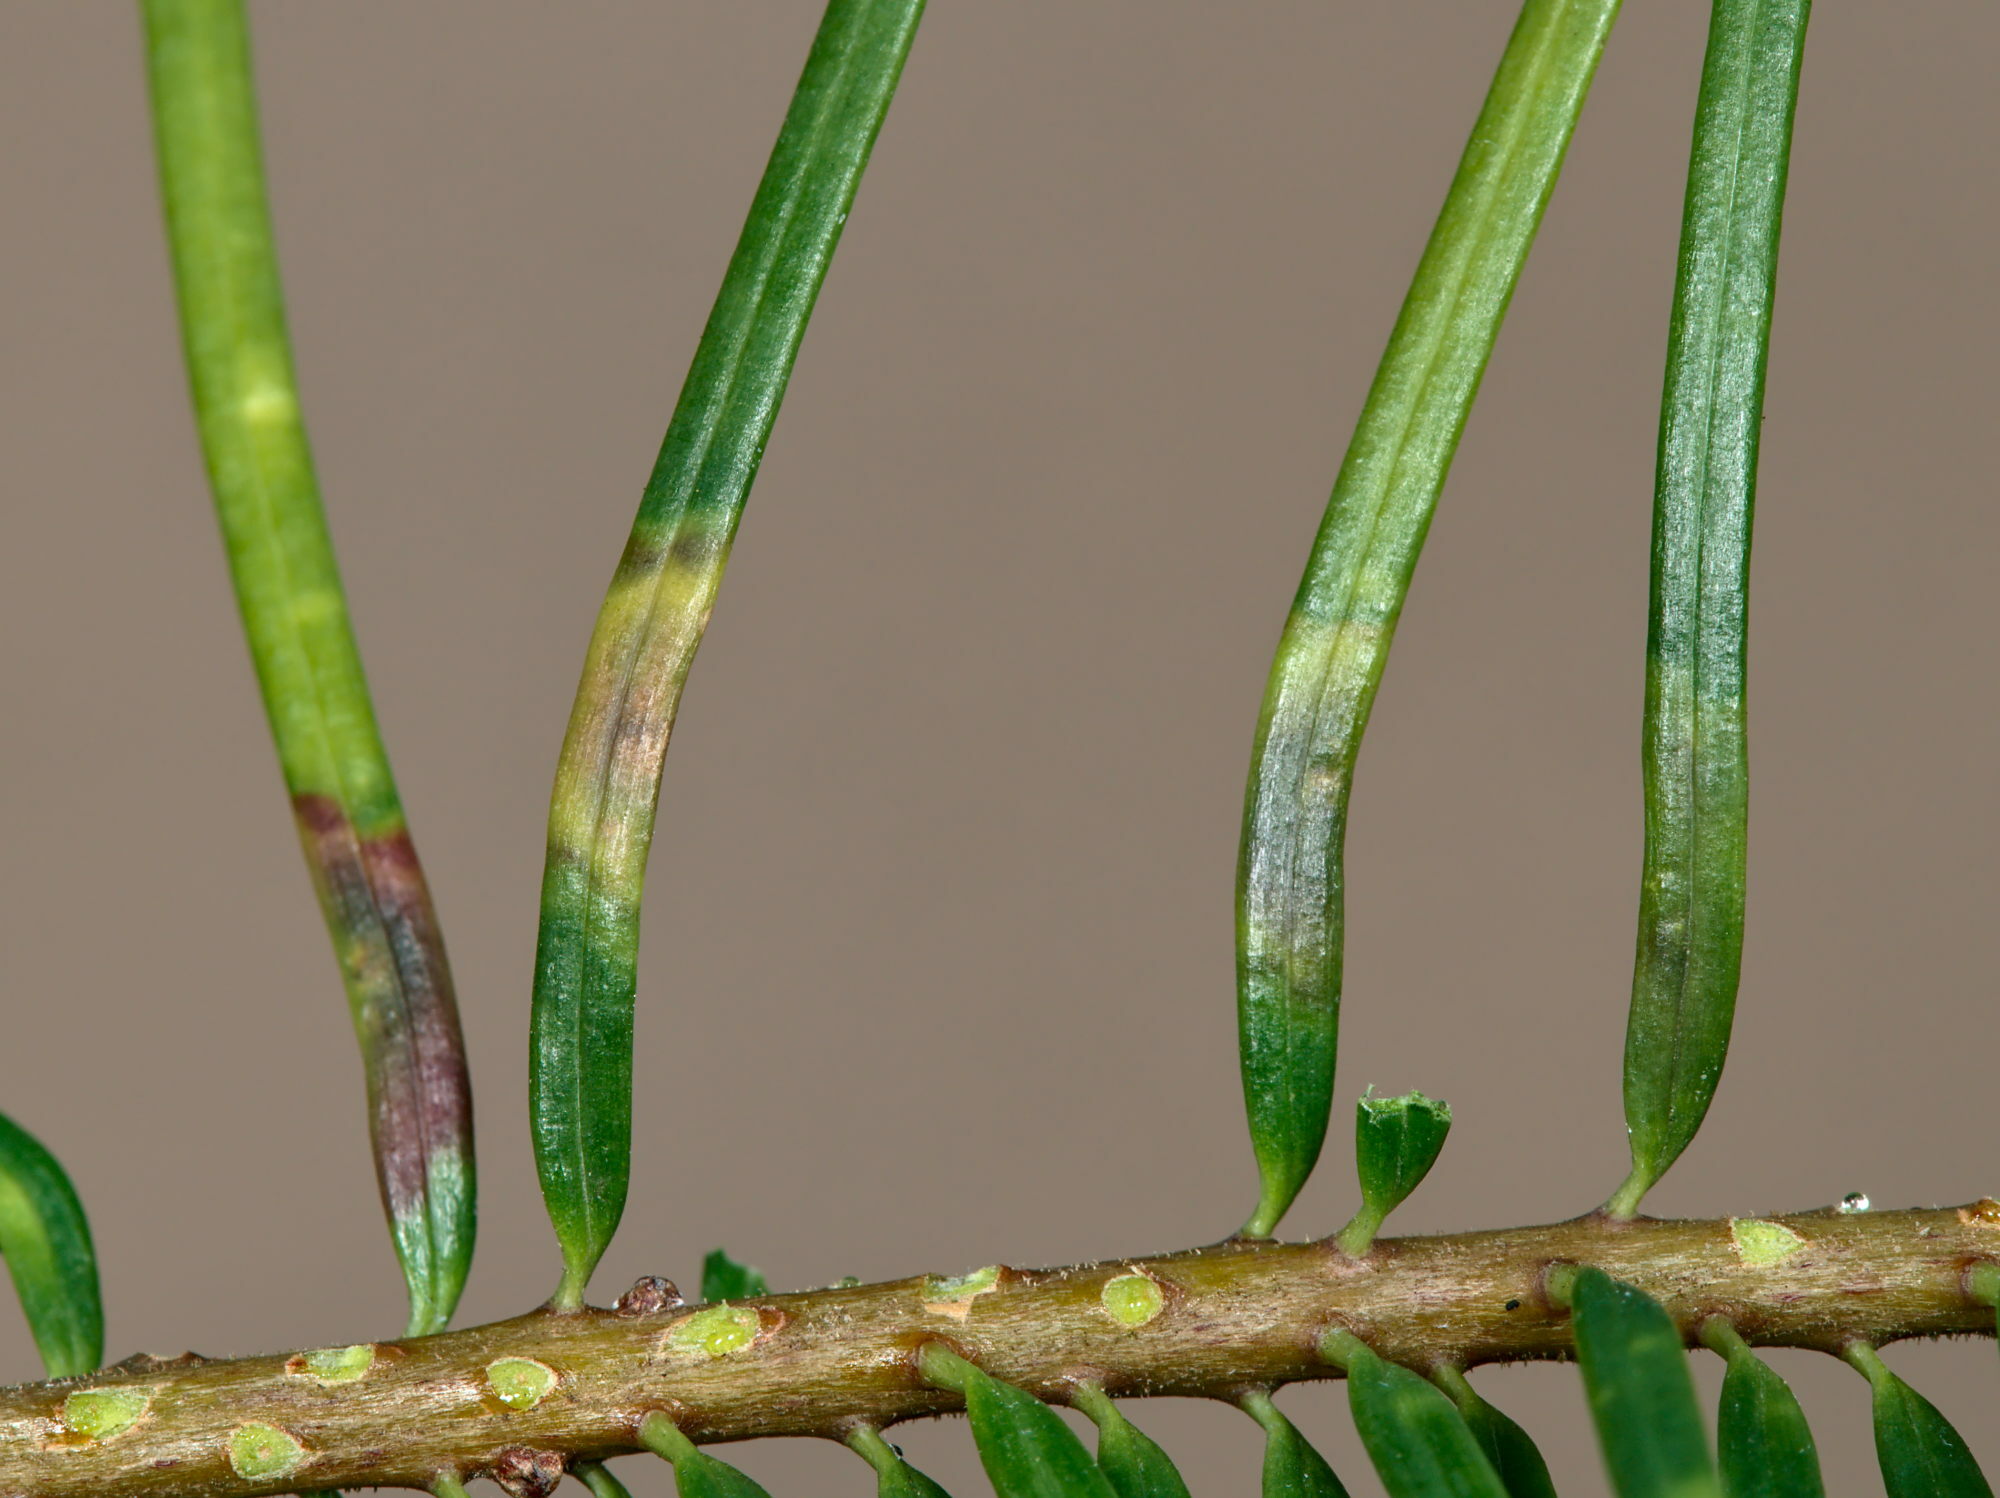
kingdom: Animalia
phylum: Arthropoda
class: Insecta
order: Diptera
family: Cecidomyiidae
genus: Contarinia
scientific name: Contarinia pseudotsugae
